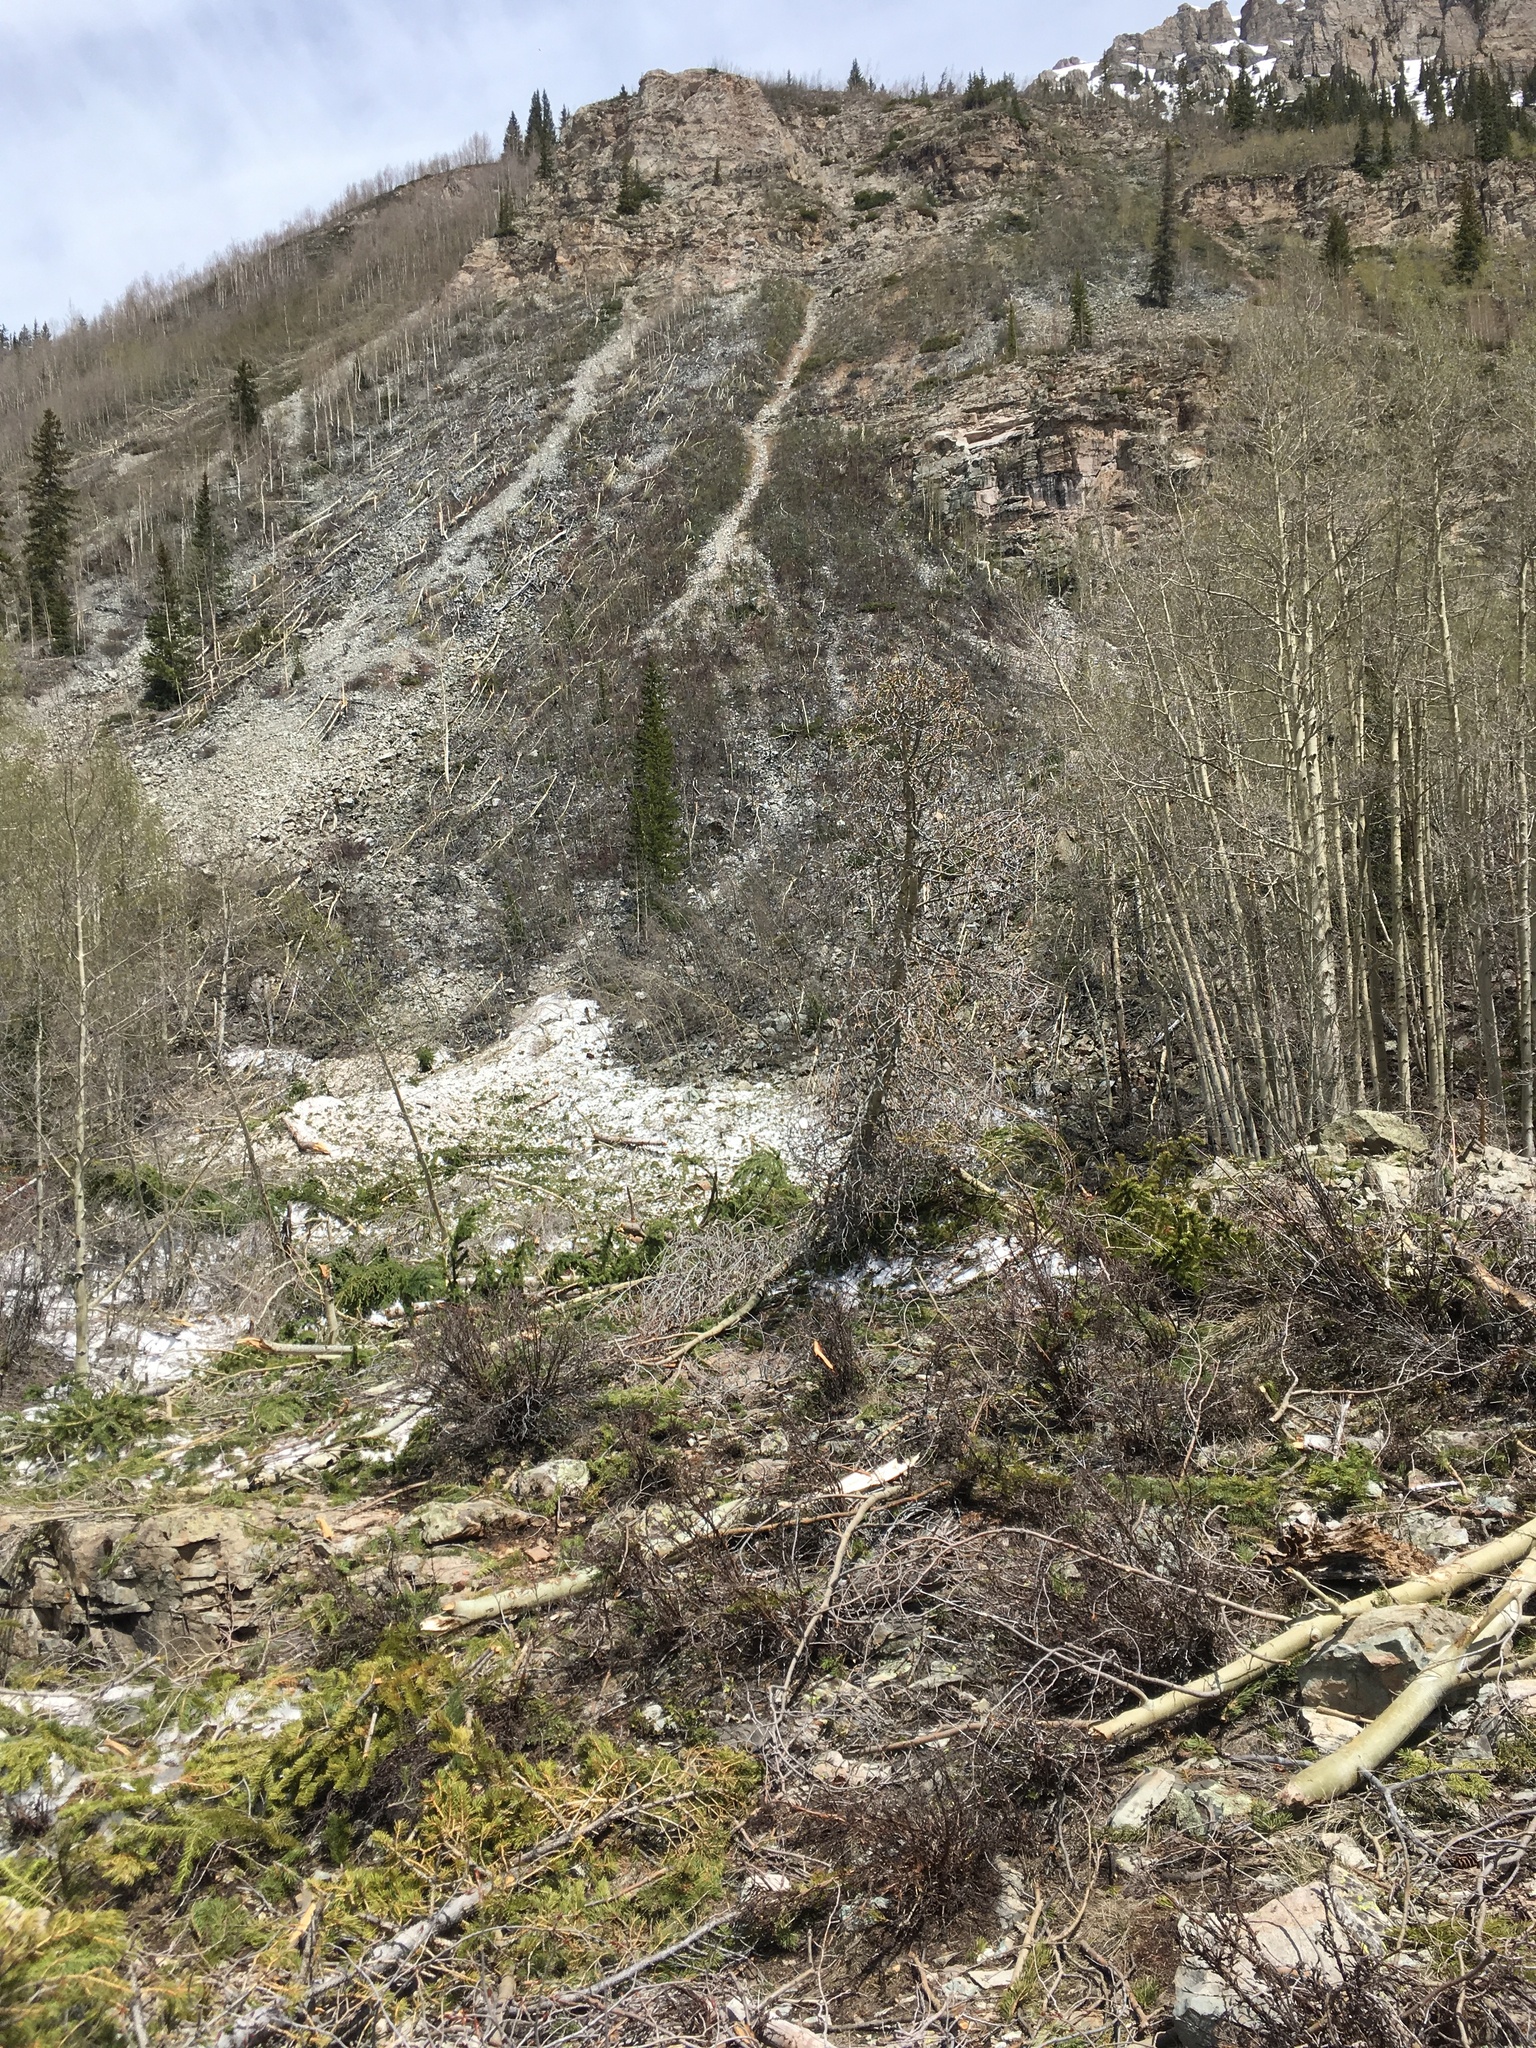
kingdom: Plantae
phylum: Tracheophyta
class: Magnoliopsida
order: Malpighiales
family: Salicaceae
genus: Populus
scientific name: Populus tremuloides
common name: Quaking aspen
